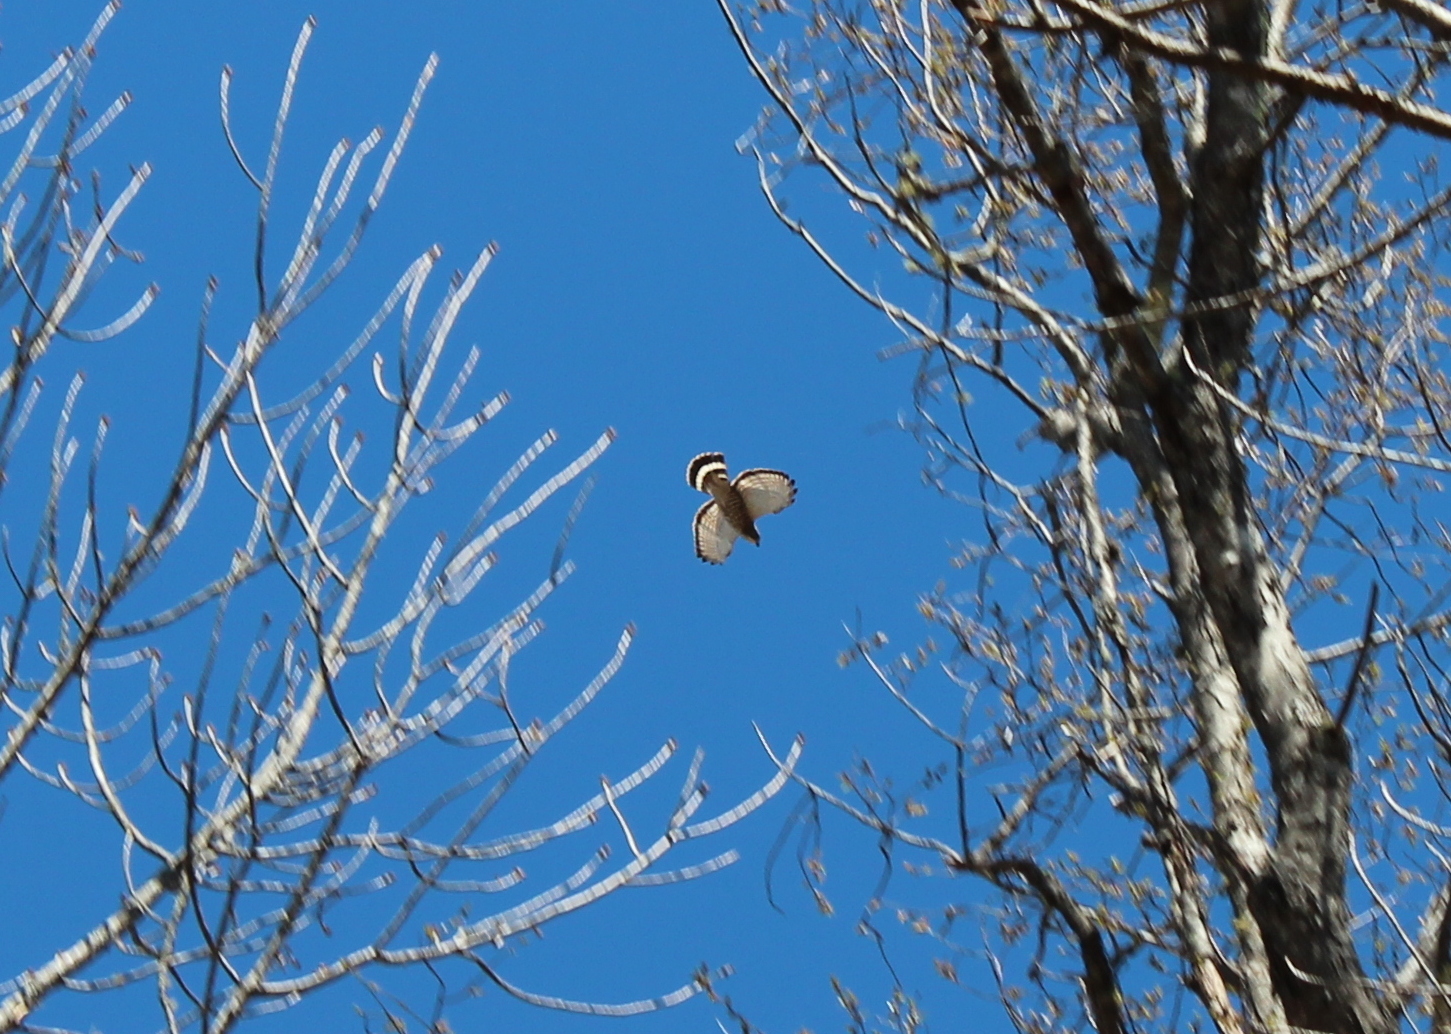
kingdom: Animalia
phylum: Chordata
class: Aves
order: Accipitriformes
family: Accipitridae
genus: Buteo
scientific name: Buteo platypterus
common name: Broad-winged hawk
